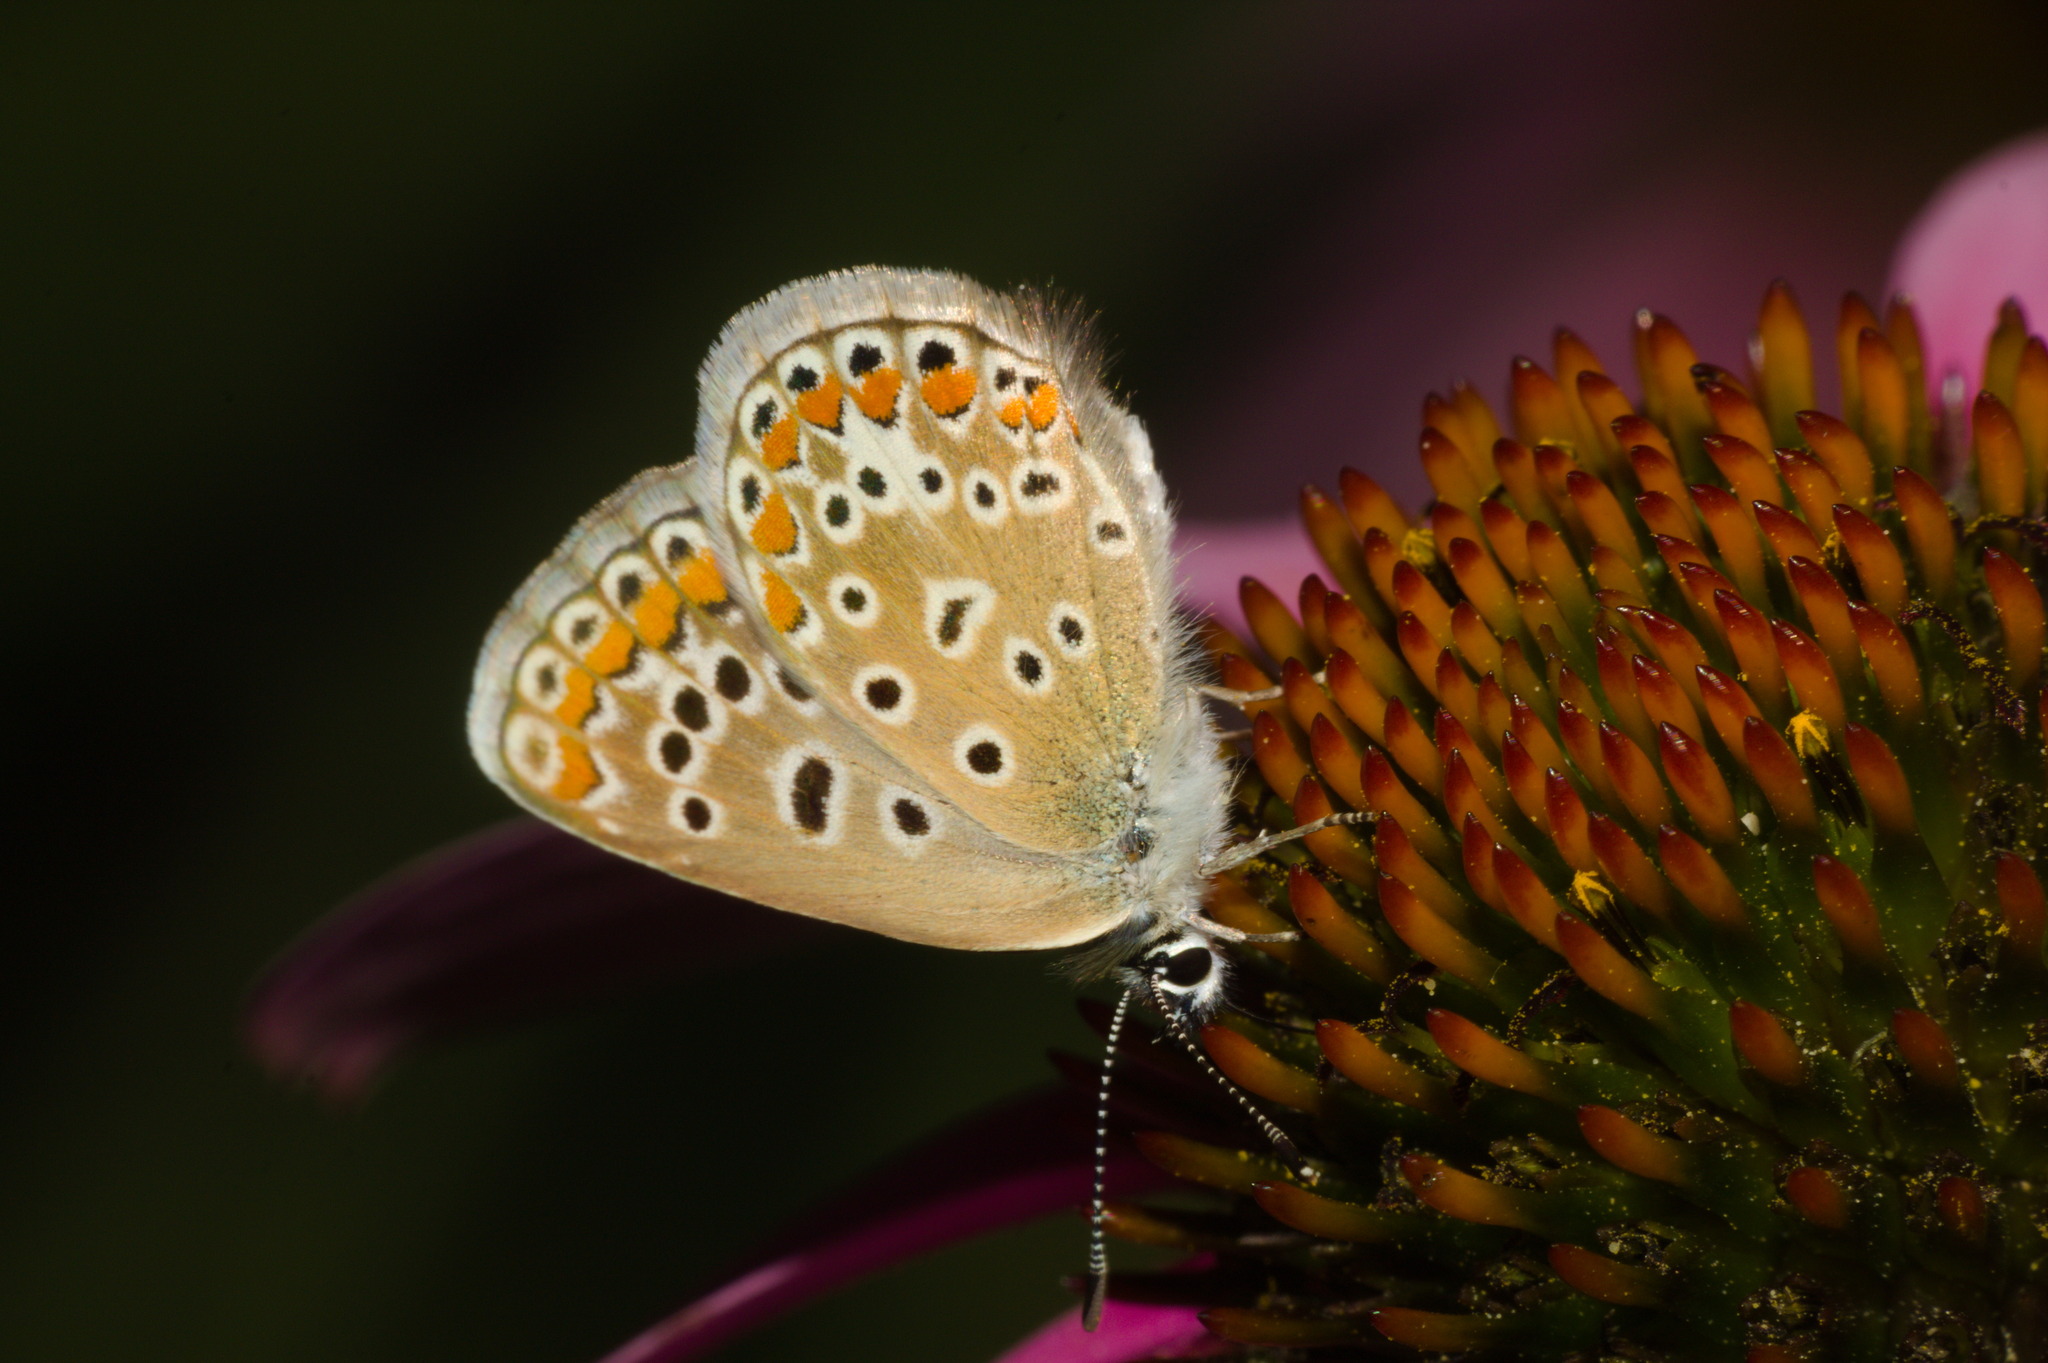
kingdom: Animalia
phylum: Arthropoda
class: Insecta
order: Lepidoptera
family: Lycaenidae
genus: Polyommatus
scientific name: Polyommatus icarus
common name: Common blue
